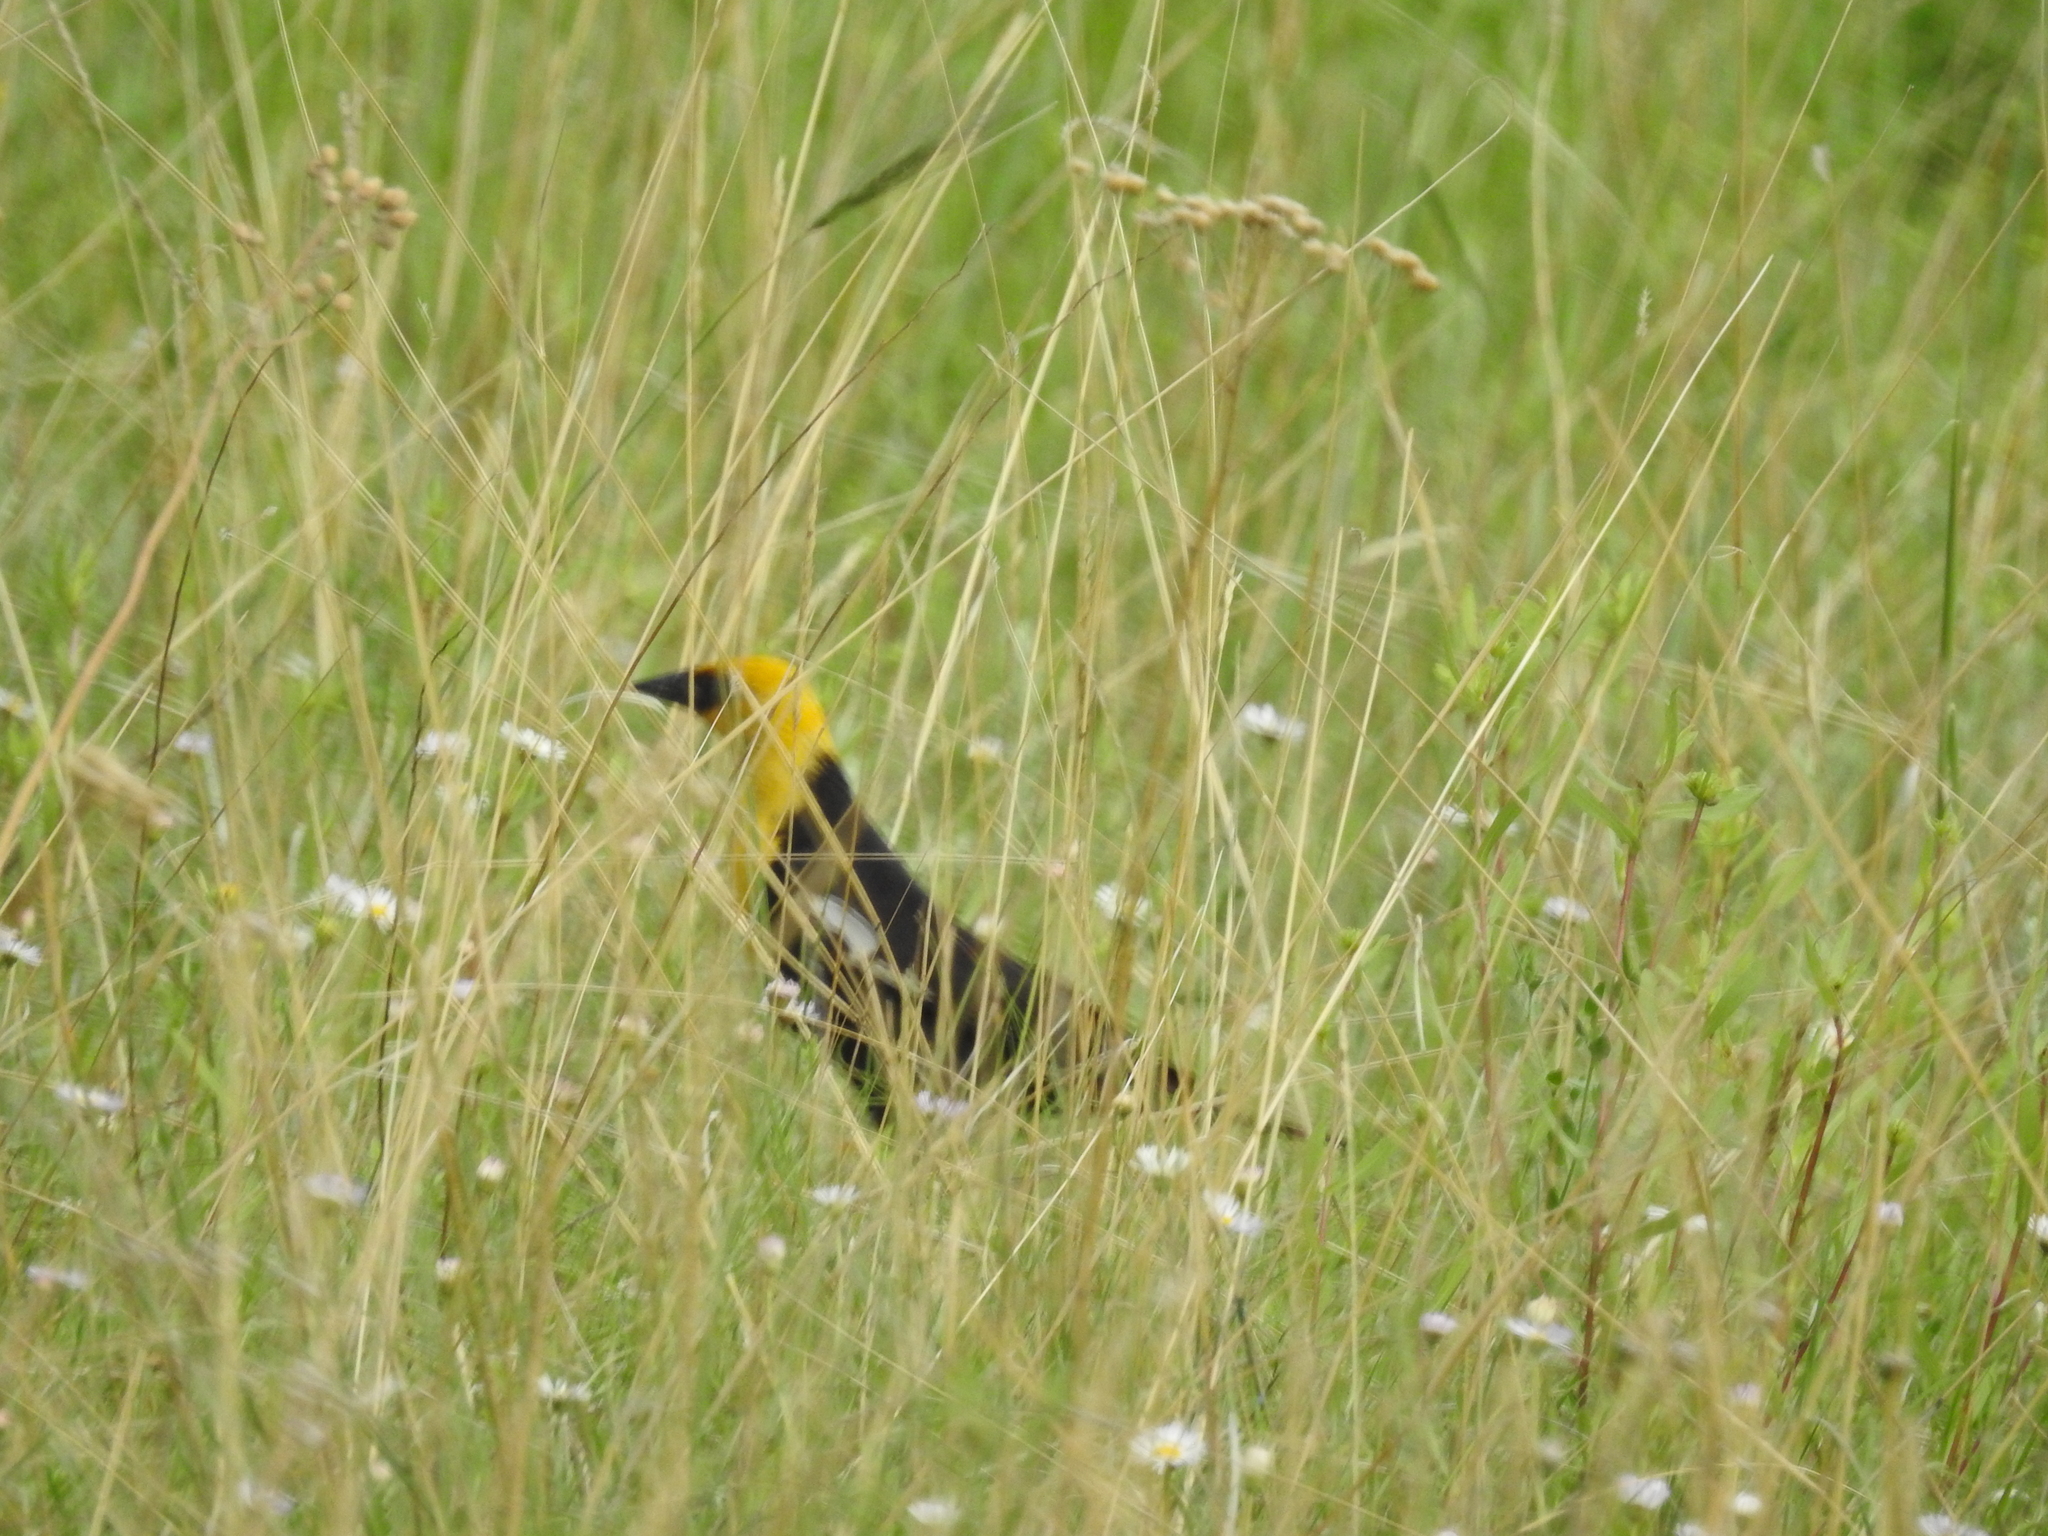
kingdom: Animalia
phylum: Chordata
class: Aves
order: Passeriformes
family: Icteridae
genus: Xanthocephalus
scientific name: Xanthocephalus xanthocephalus
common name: Yellow-headed blackbird
